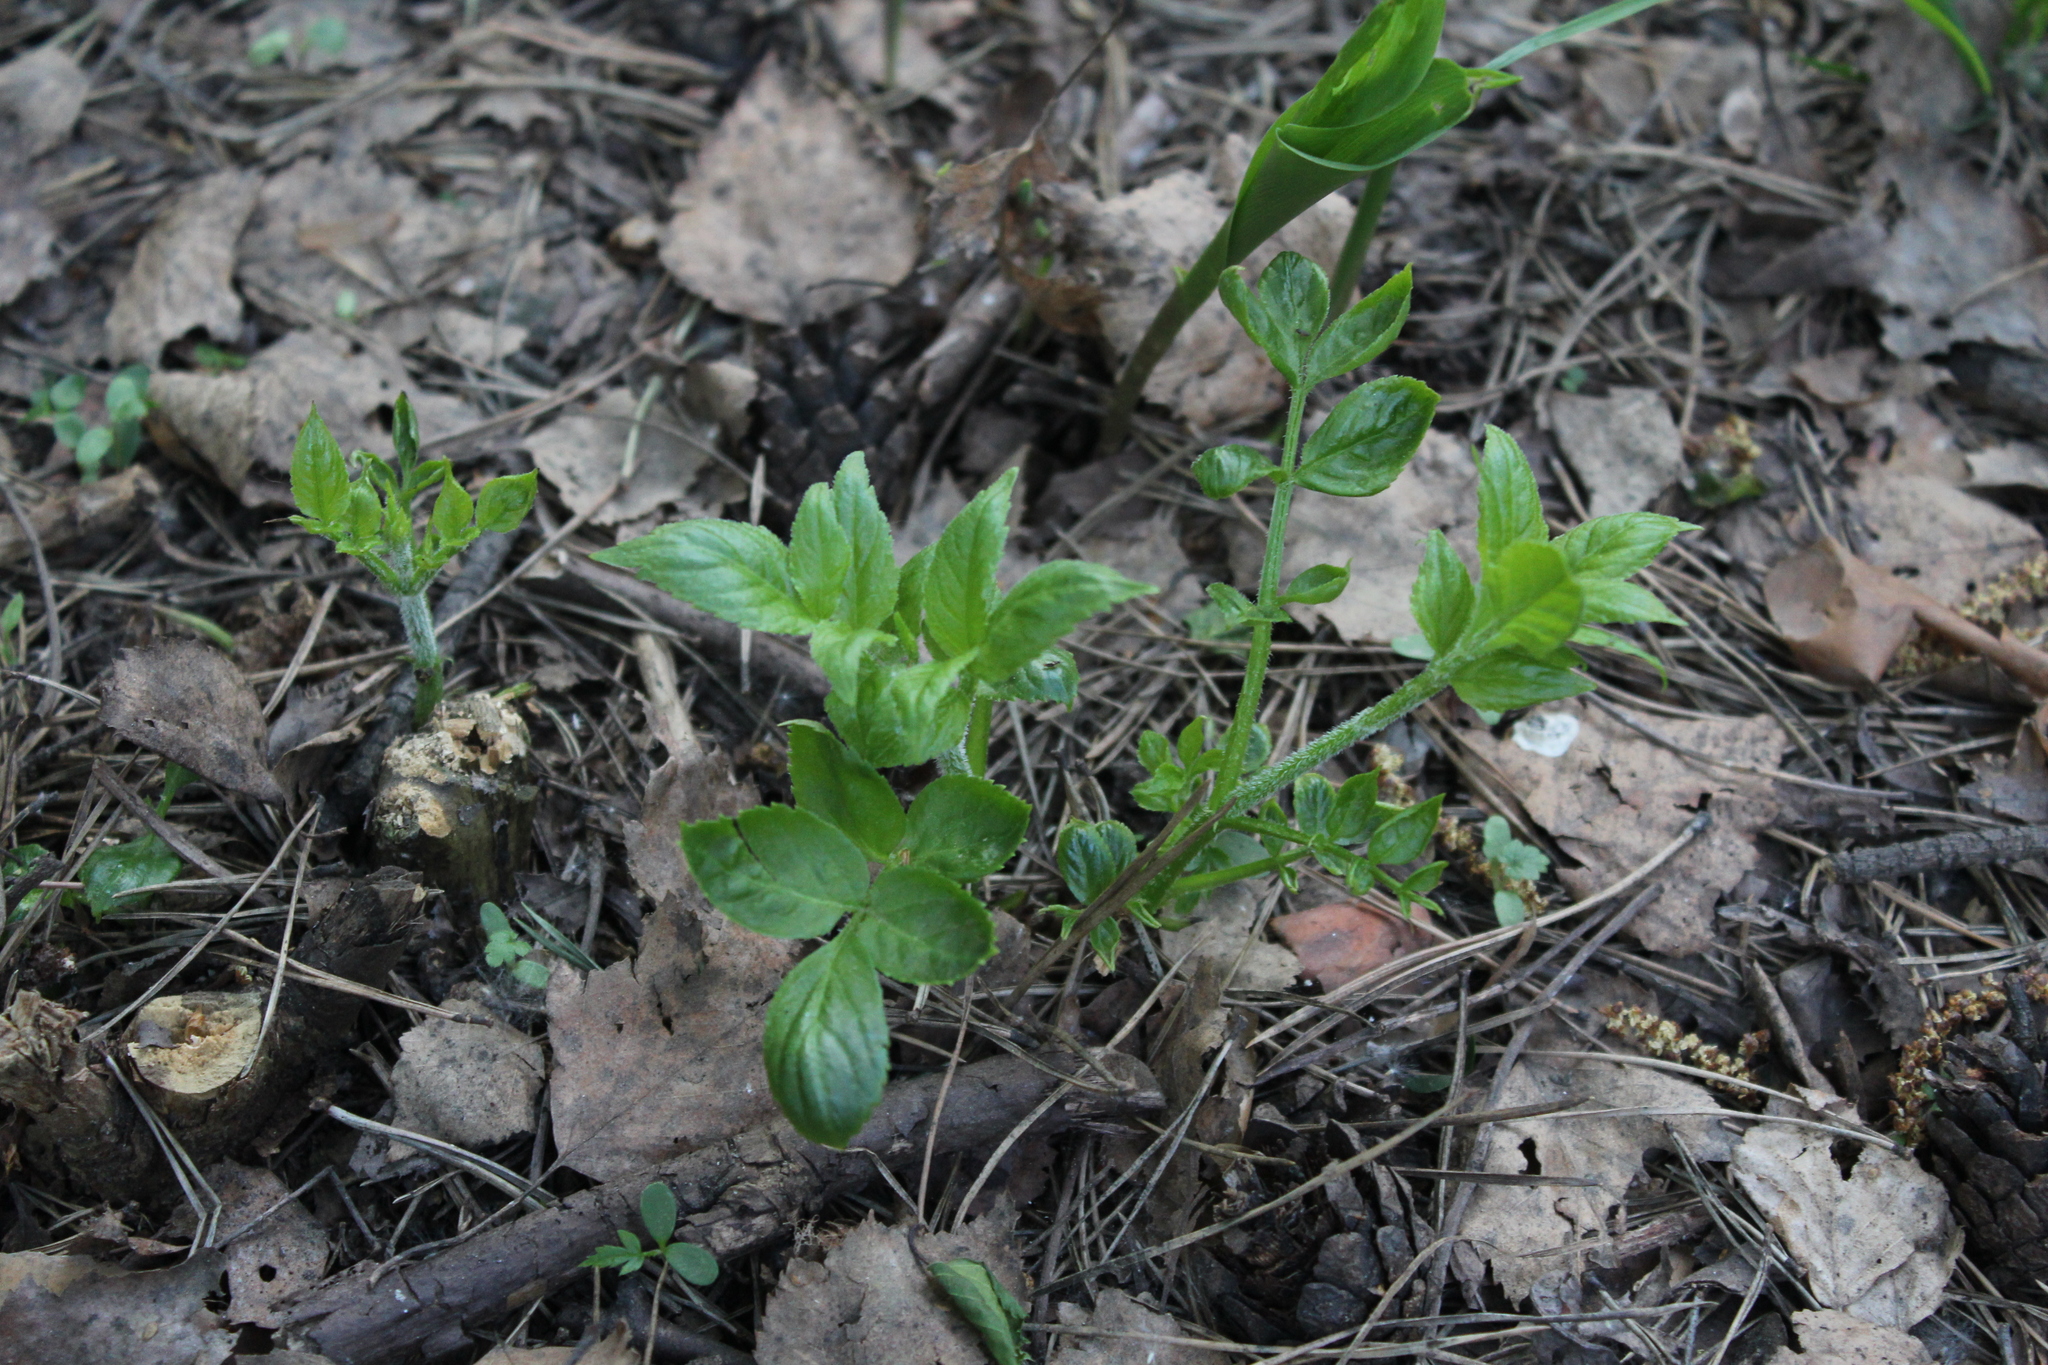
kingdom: Plantae
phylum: Tracheophyta
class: Magnoliopsida
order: Dipsacales
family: Viburnaceae
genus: Sambucus
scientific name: Sambucus racemosa
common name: Red-berried elder
